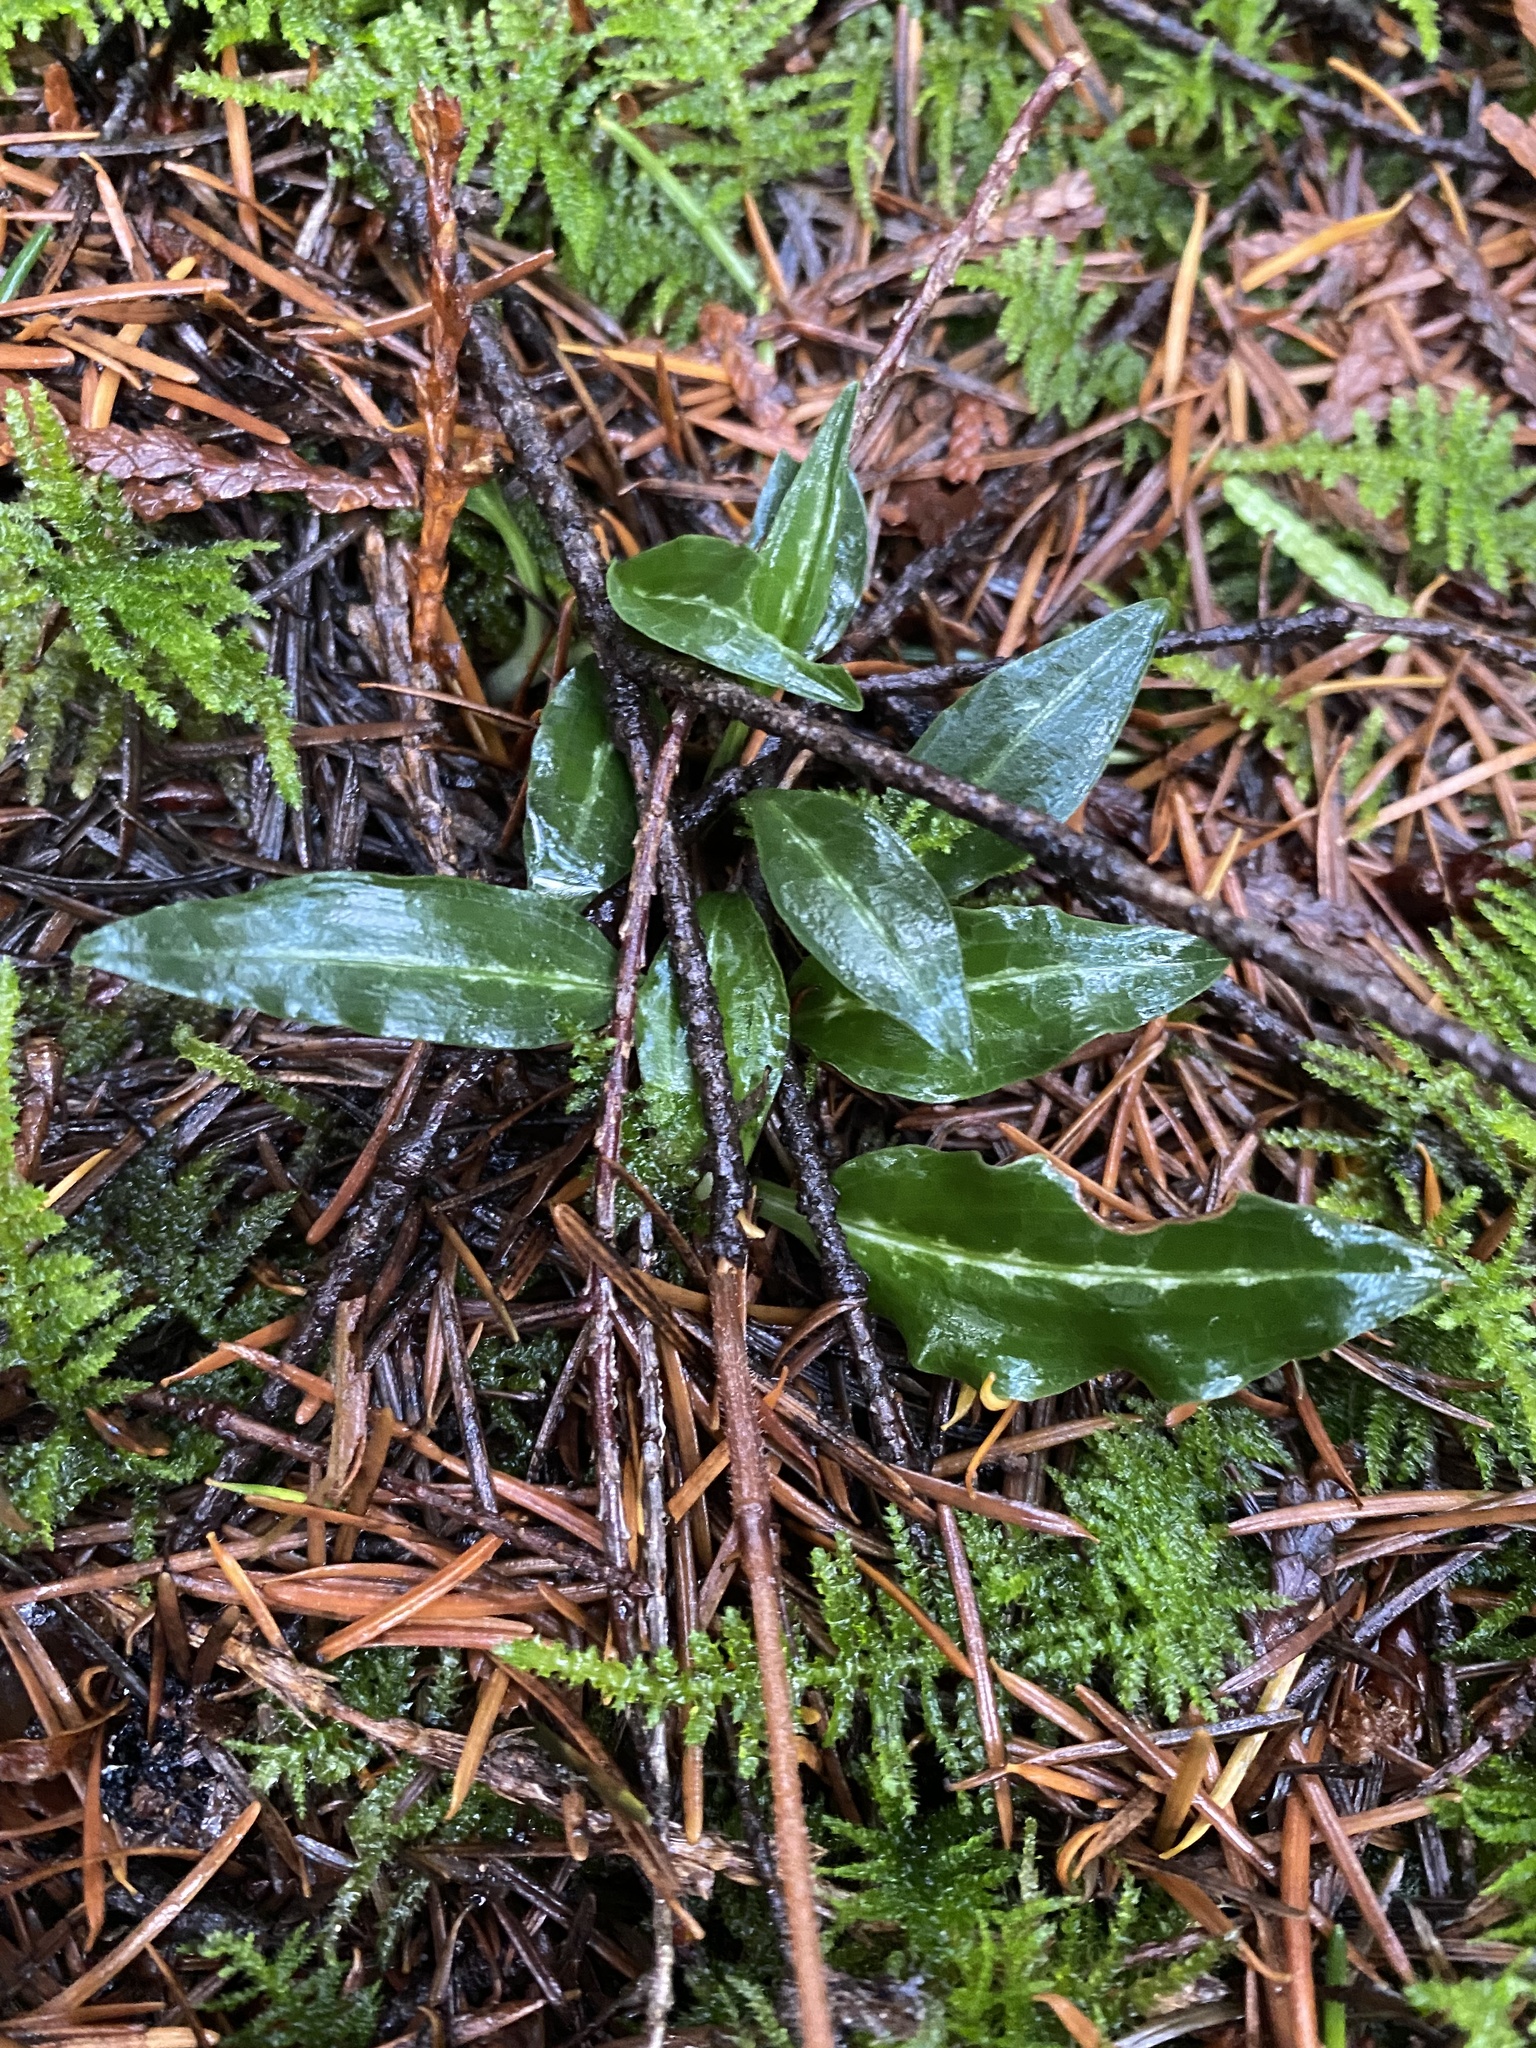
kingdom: Plantae
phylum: Tracheophyta
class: Liliopsida
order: Asparagales
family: Orchidaceae
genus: Goodyera
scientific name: Goodyera oblongifolia
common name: Giant rattlesnake-plantain
